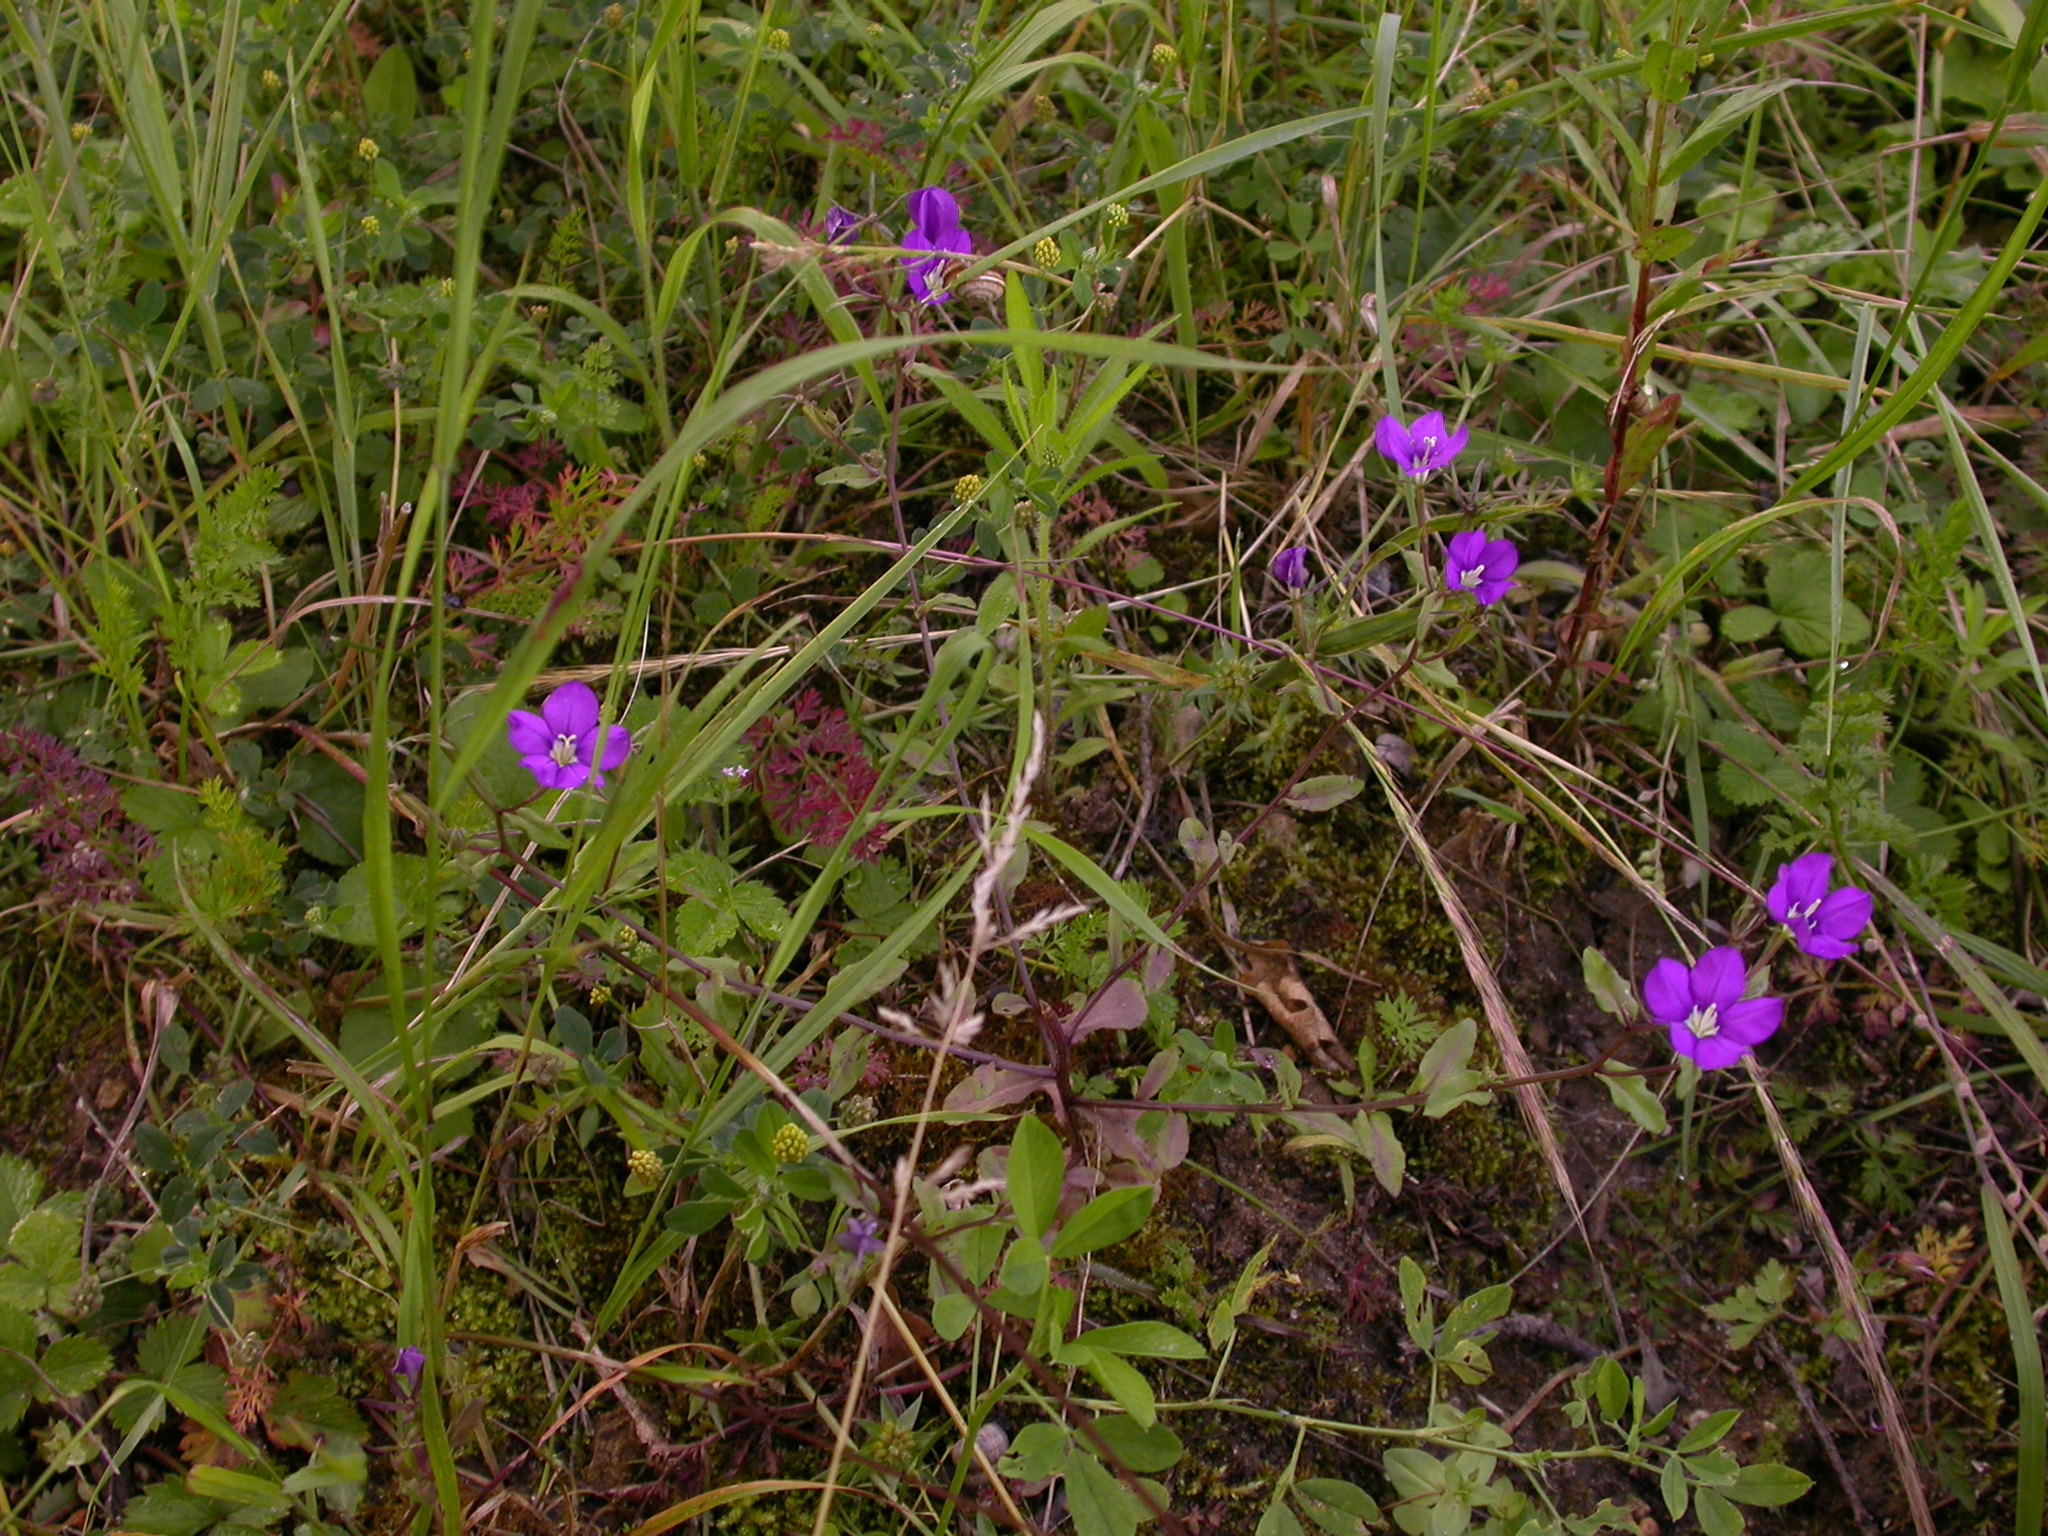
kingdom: Plantae
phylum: Tracheophyta
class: Magnoliopsida
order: Asterales
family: Campanulaceae
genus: Legousia
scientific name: Legousia speculum-veneris
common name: Large venus's-looking-glass
